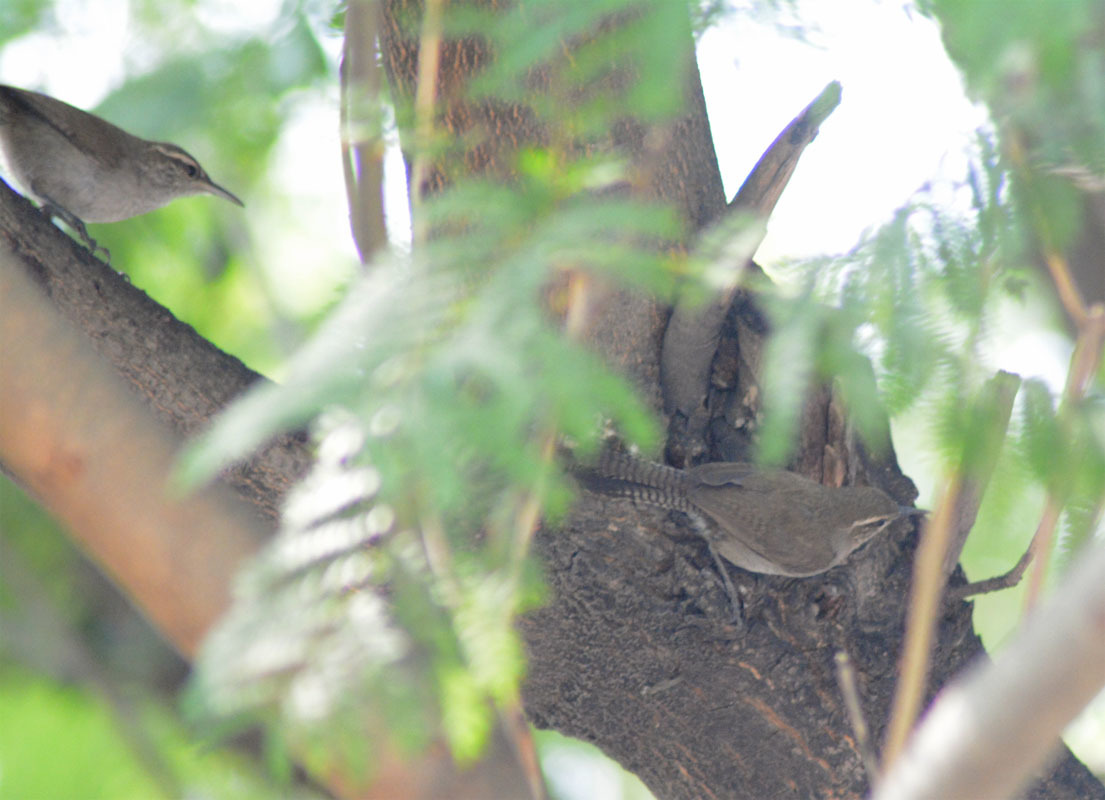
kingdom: Animalia
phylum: Chordata
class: Aves
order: Passeriformes
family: Troglodytidae
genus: Thryomanes
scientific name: Thryomanes bewickii
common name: Bewick's wren
